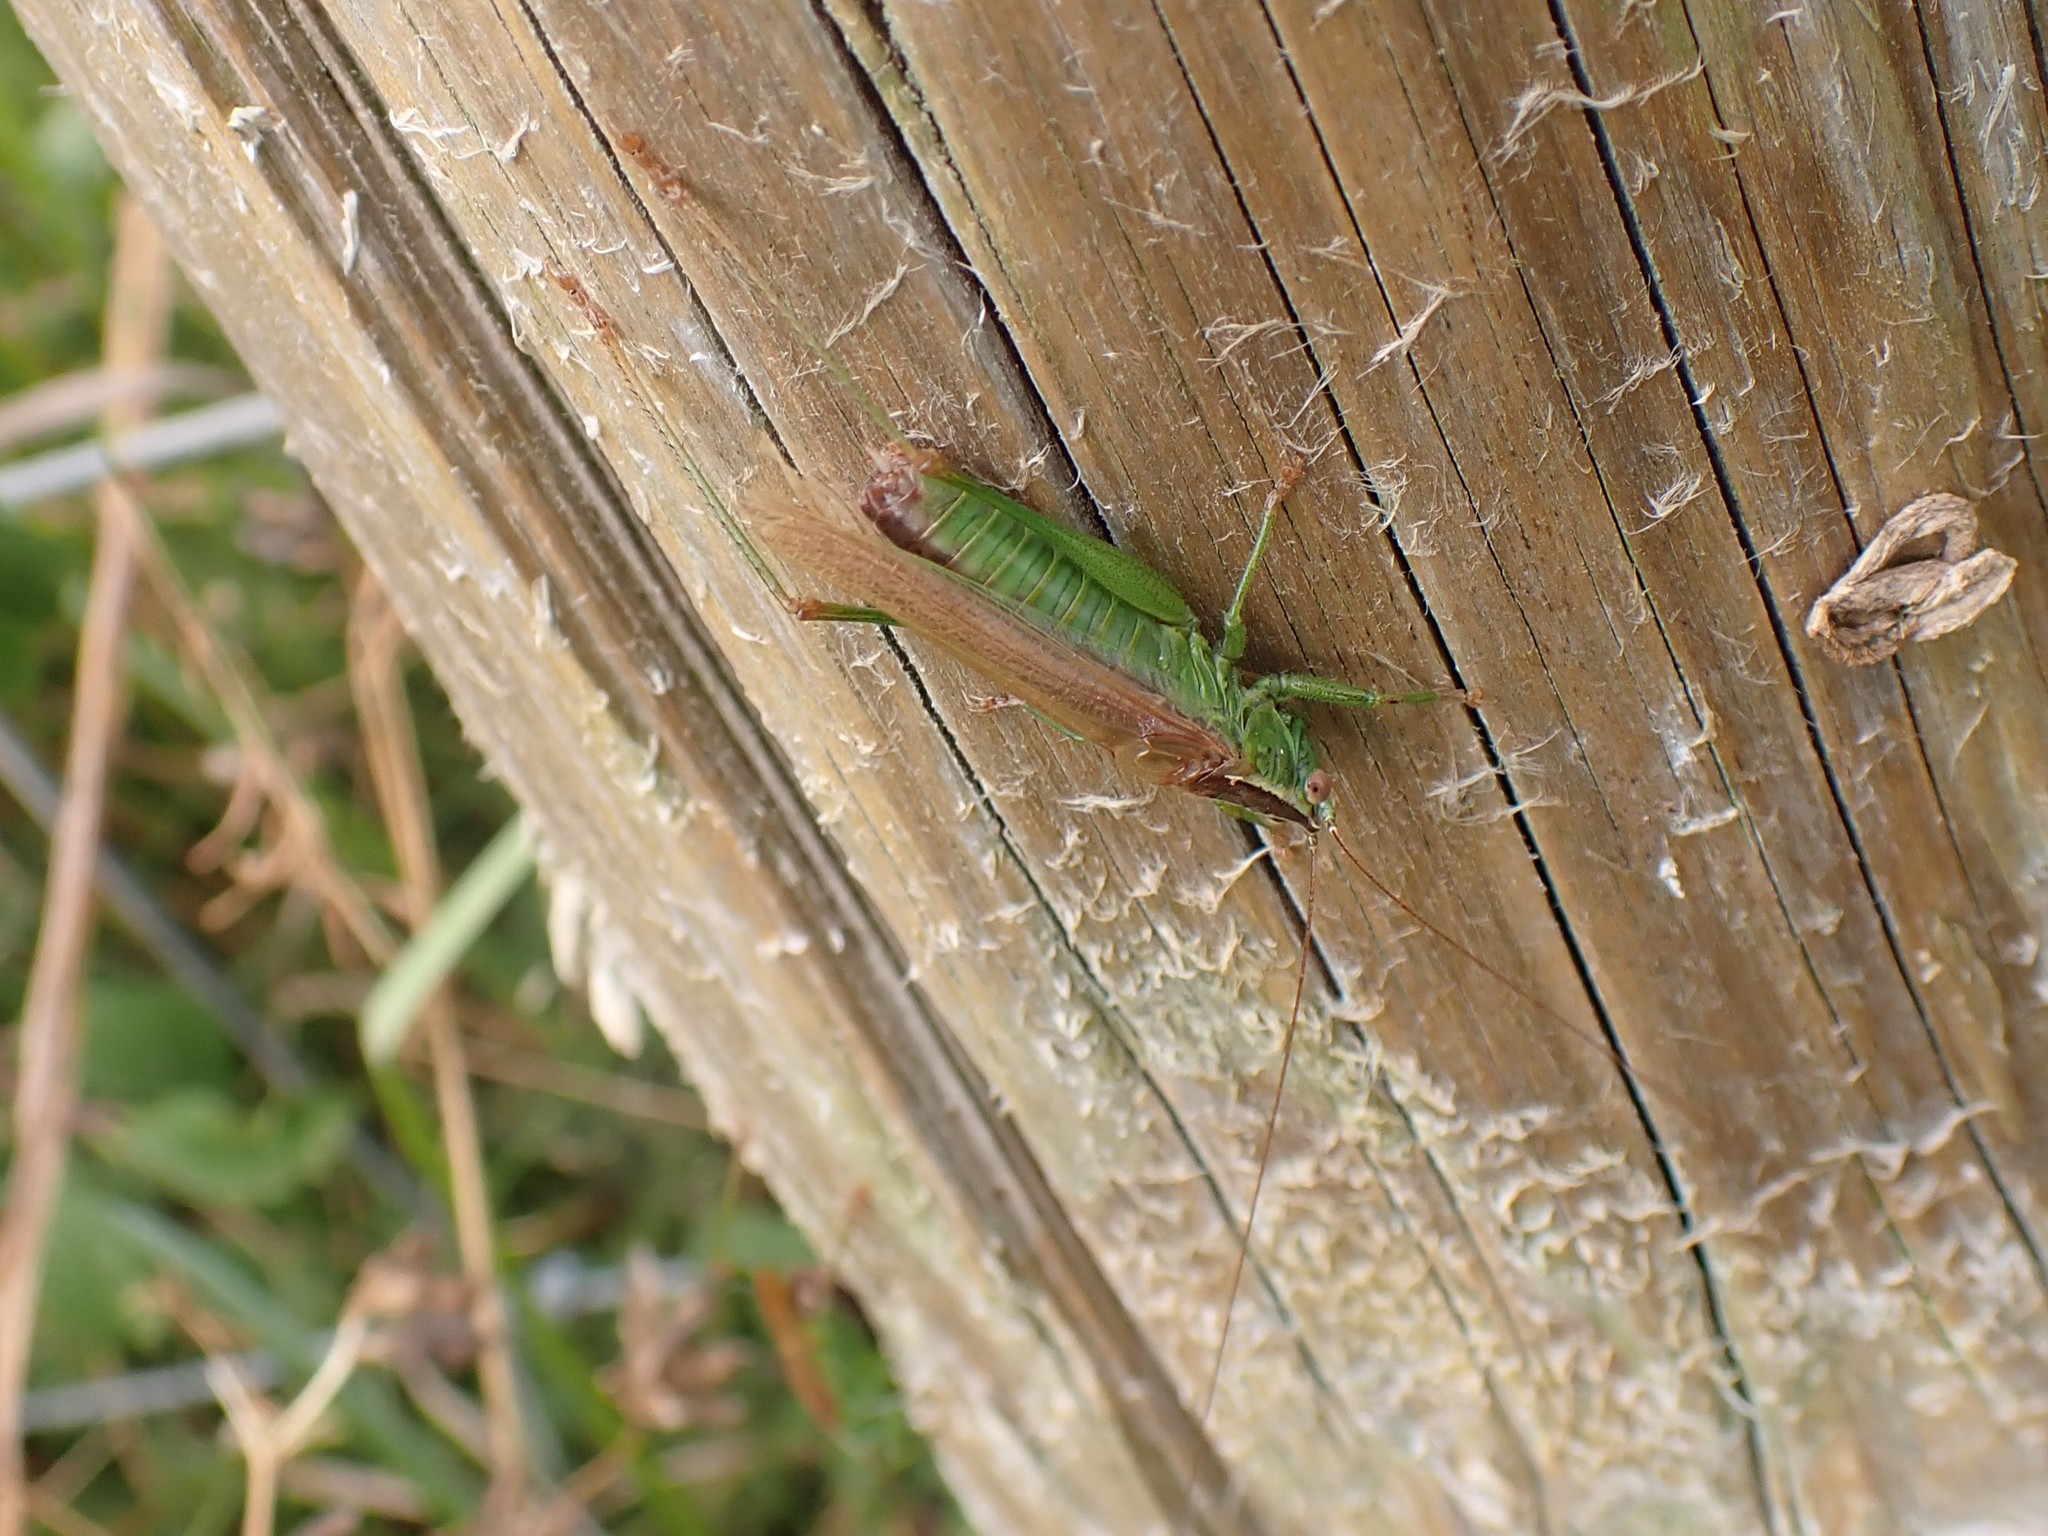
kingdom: Animalia
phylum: Arthropoda
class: Insecta
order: Orthoptera
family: Tettigoniidae
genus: Conocephalus
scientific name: Conocephalus fuscus
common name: Long-winged conehead
